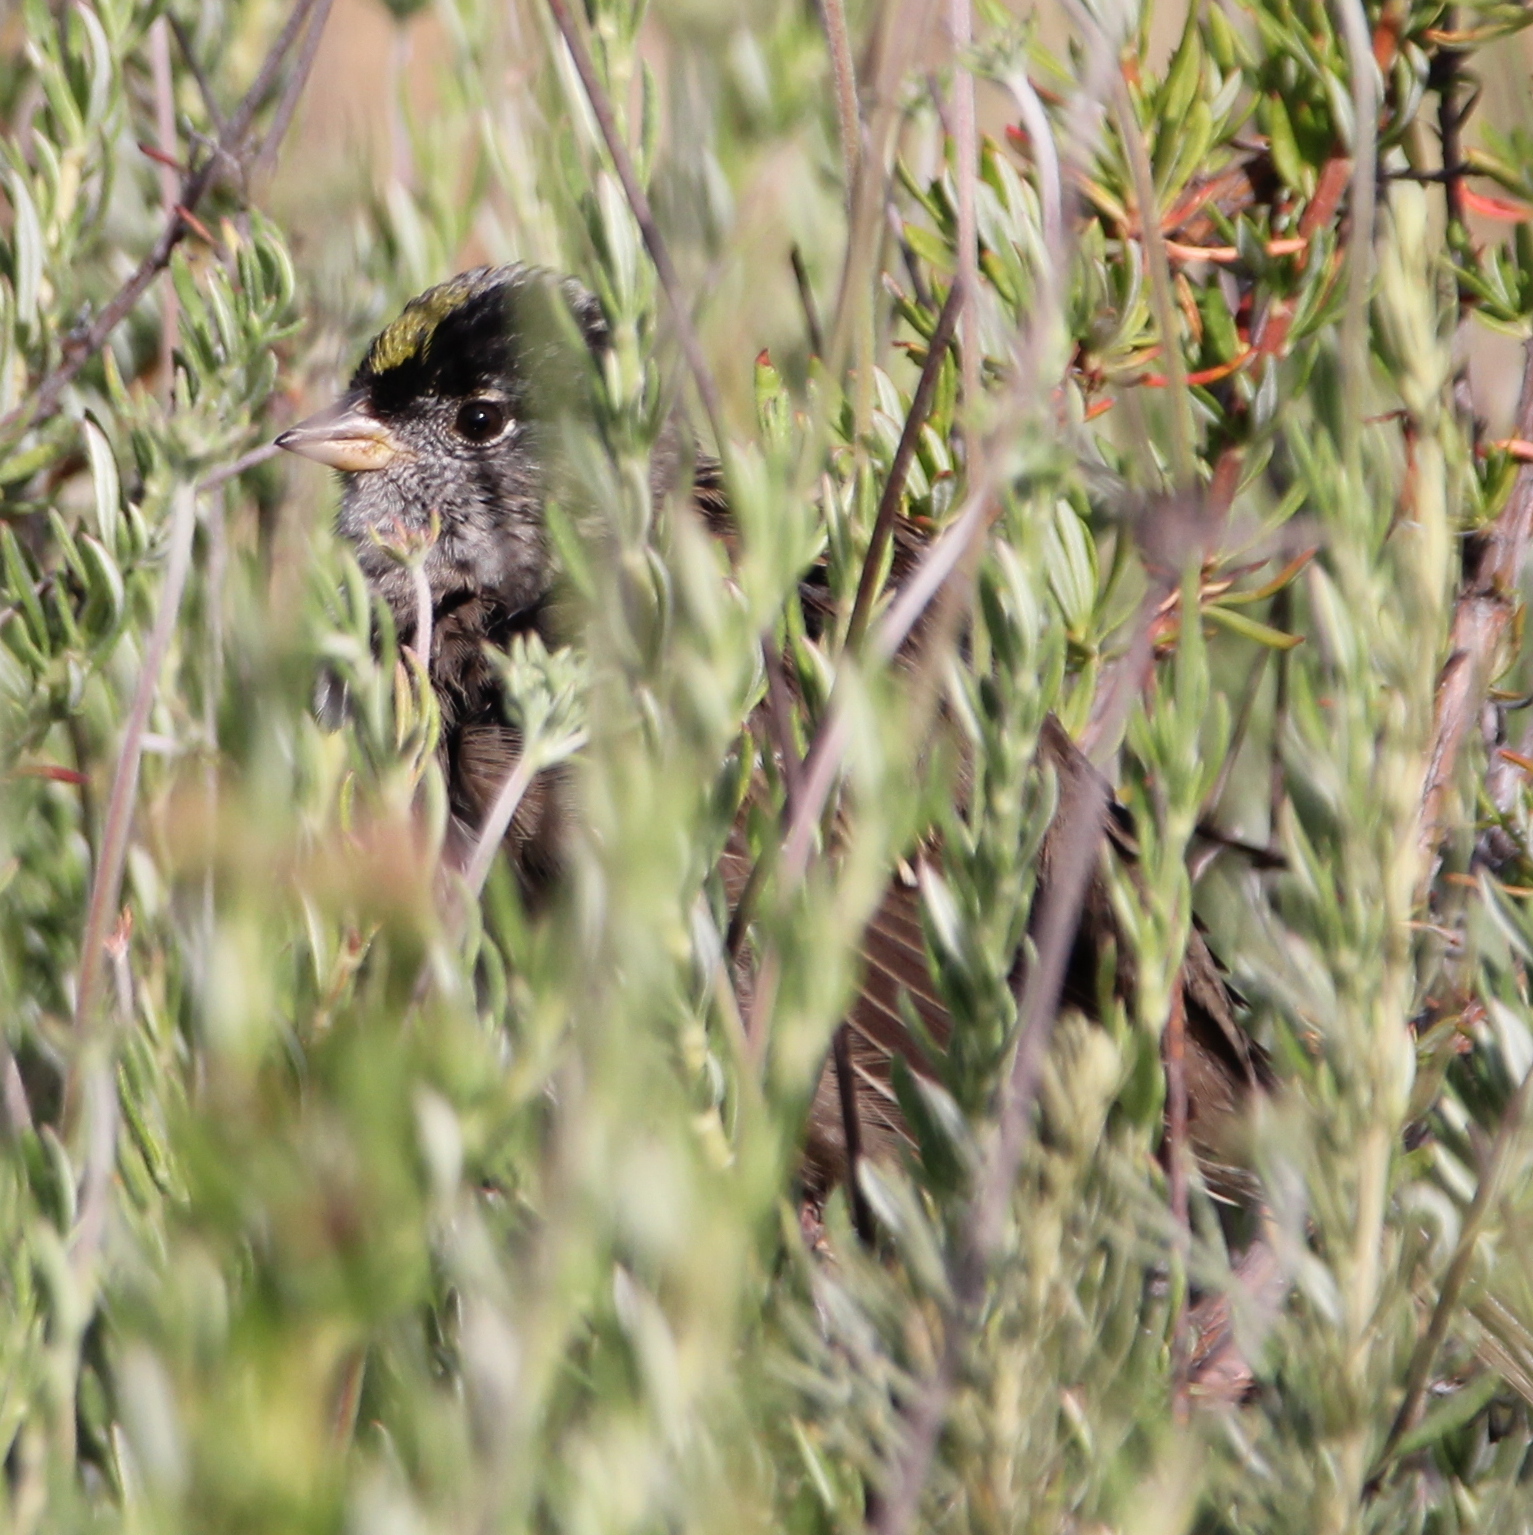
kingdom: Animalia
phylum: Chordata
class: Aves
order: Passeriformes
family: Passerellidae
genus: Zonotrichia
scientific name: Zonotrichia atricapilla
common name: Golden-crowned sparrow
